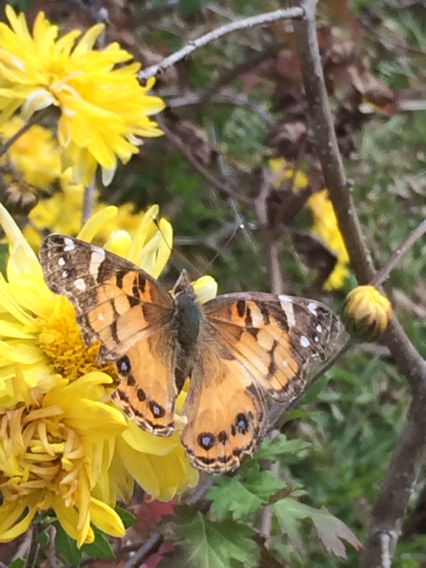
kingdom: Animalia
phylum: Arthropoda
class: Insecta
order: Lepidoptera
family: Nymphalidae
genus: Vanessa
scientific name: Vanessa virginiensis
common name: American lady
